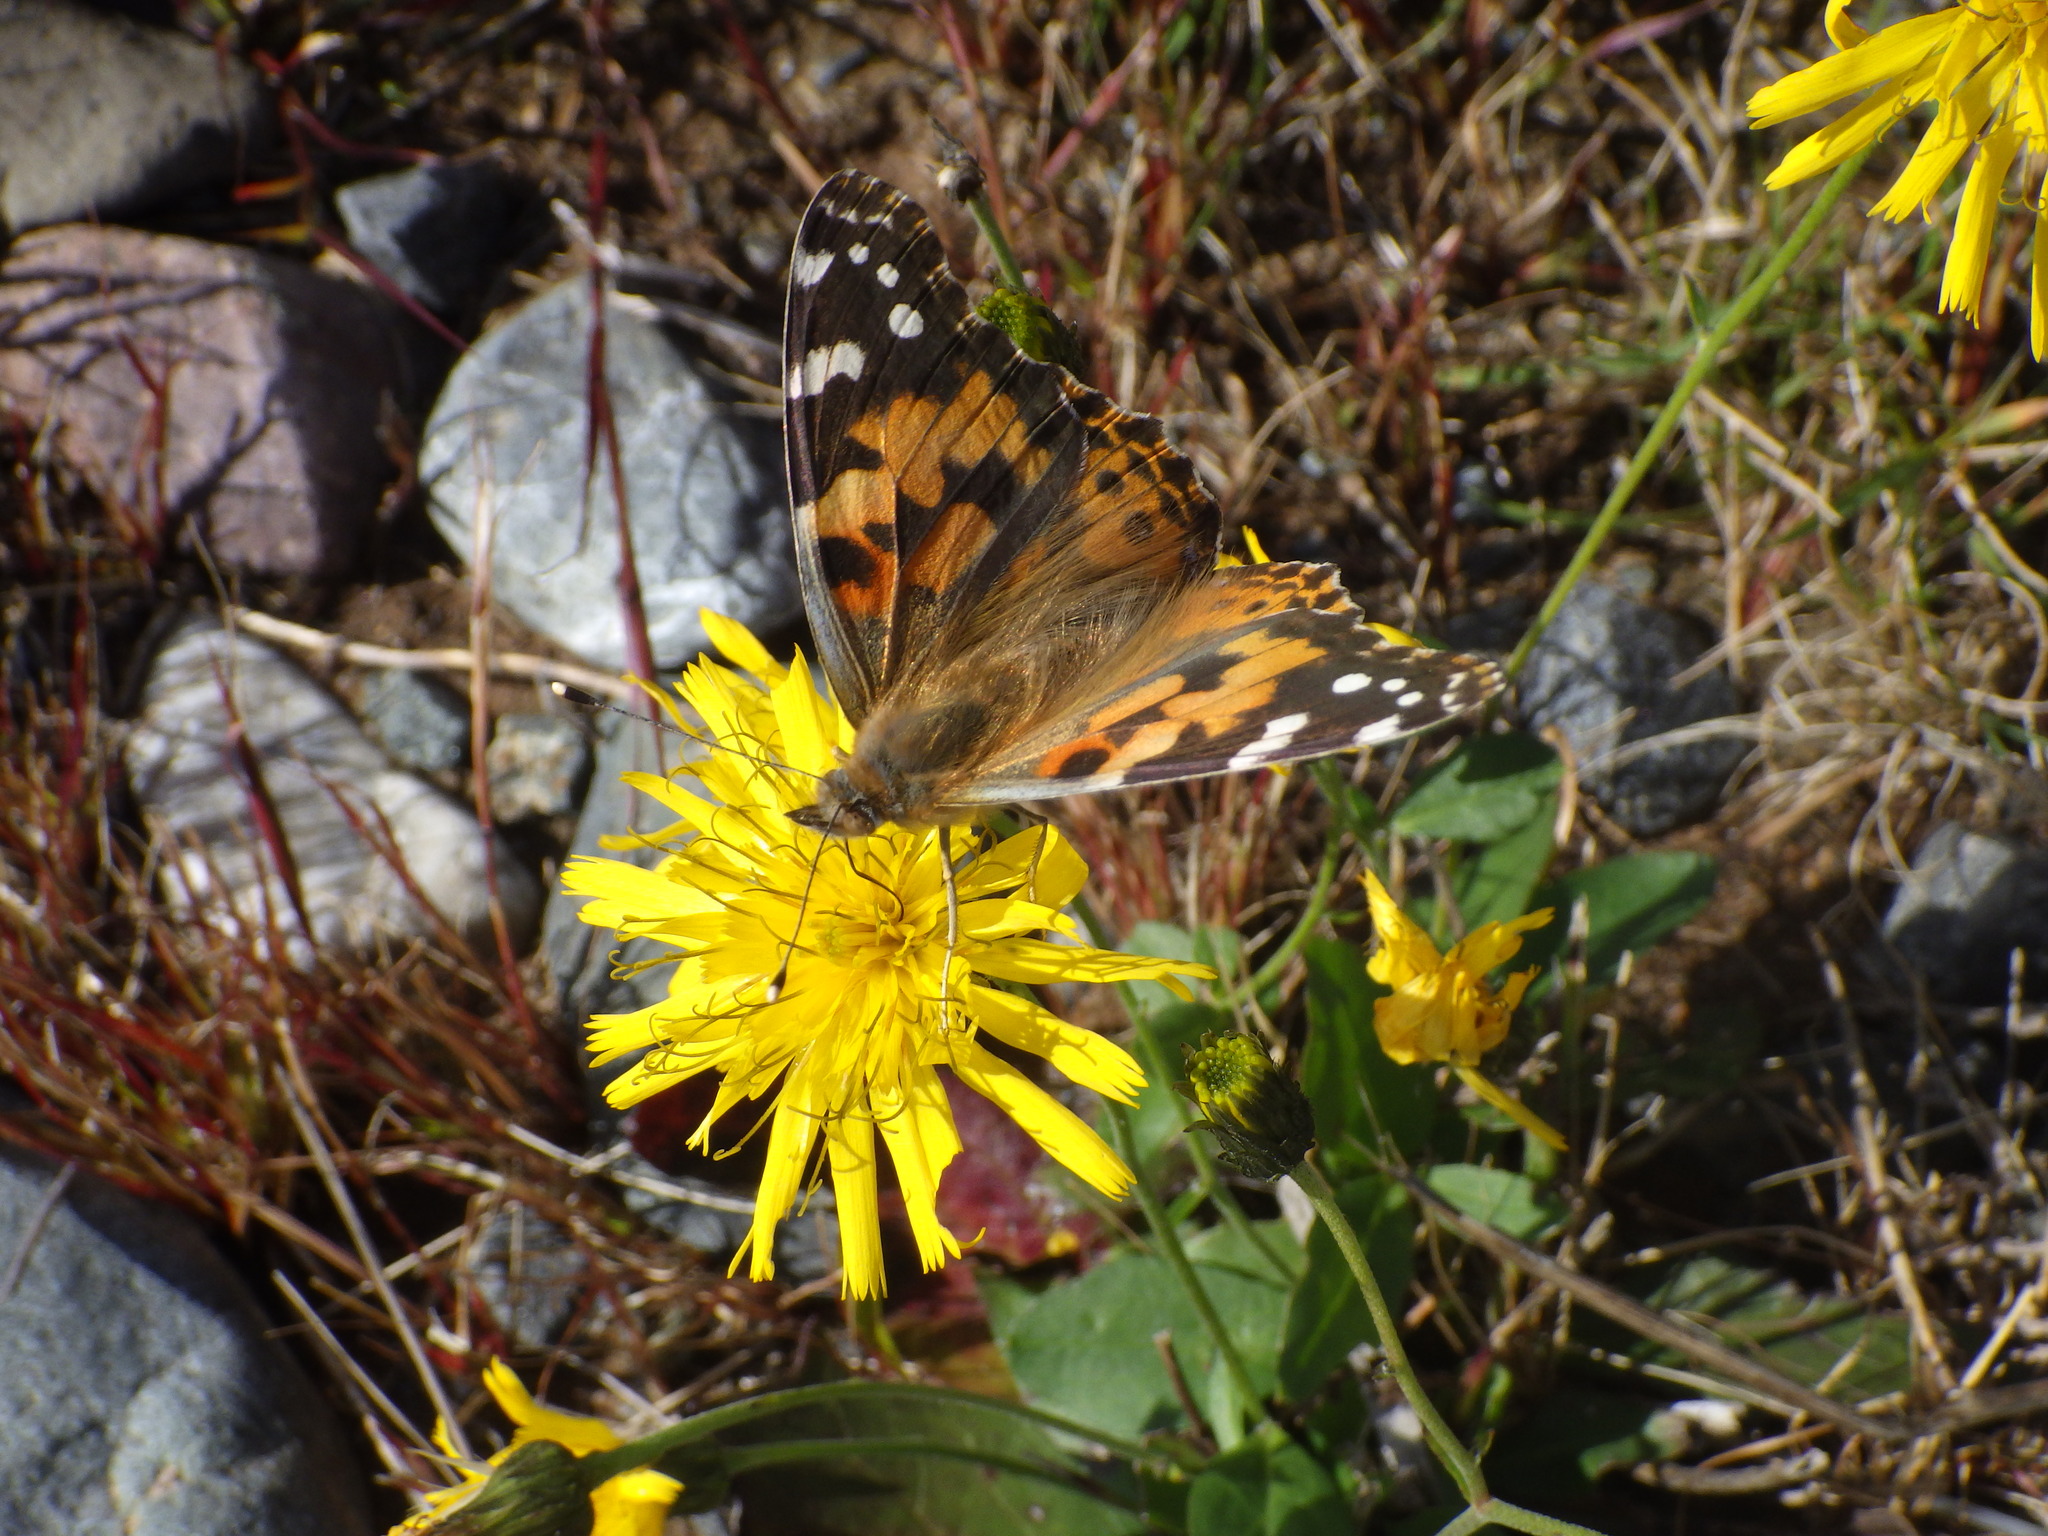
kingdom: Animalia
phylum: Arthropoda
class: Insecta
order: Lepidoptera
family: Nymphalidae
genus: Vanessa
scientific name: Vanessa cardui
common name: Painted lady
